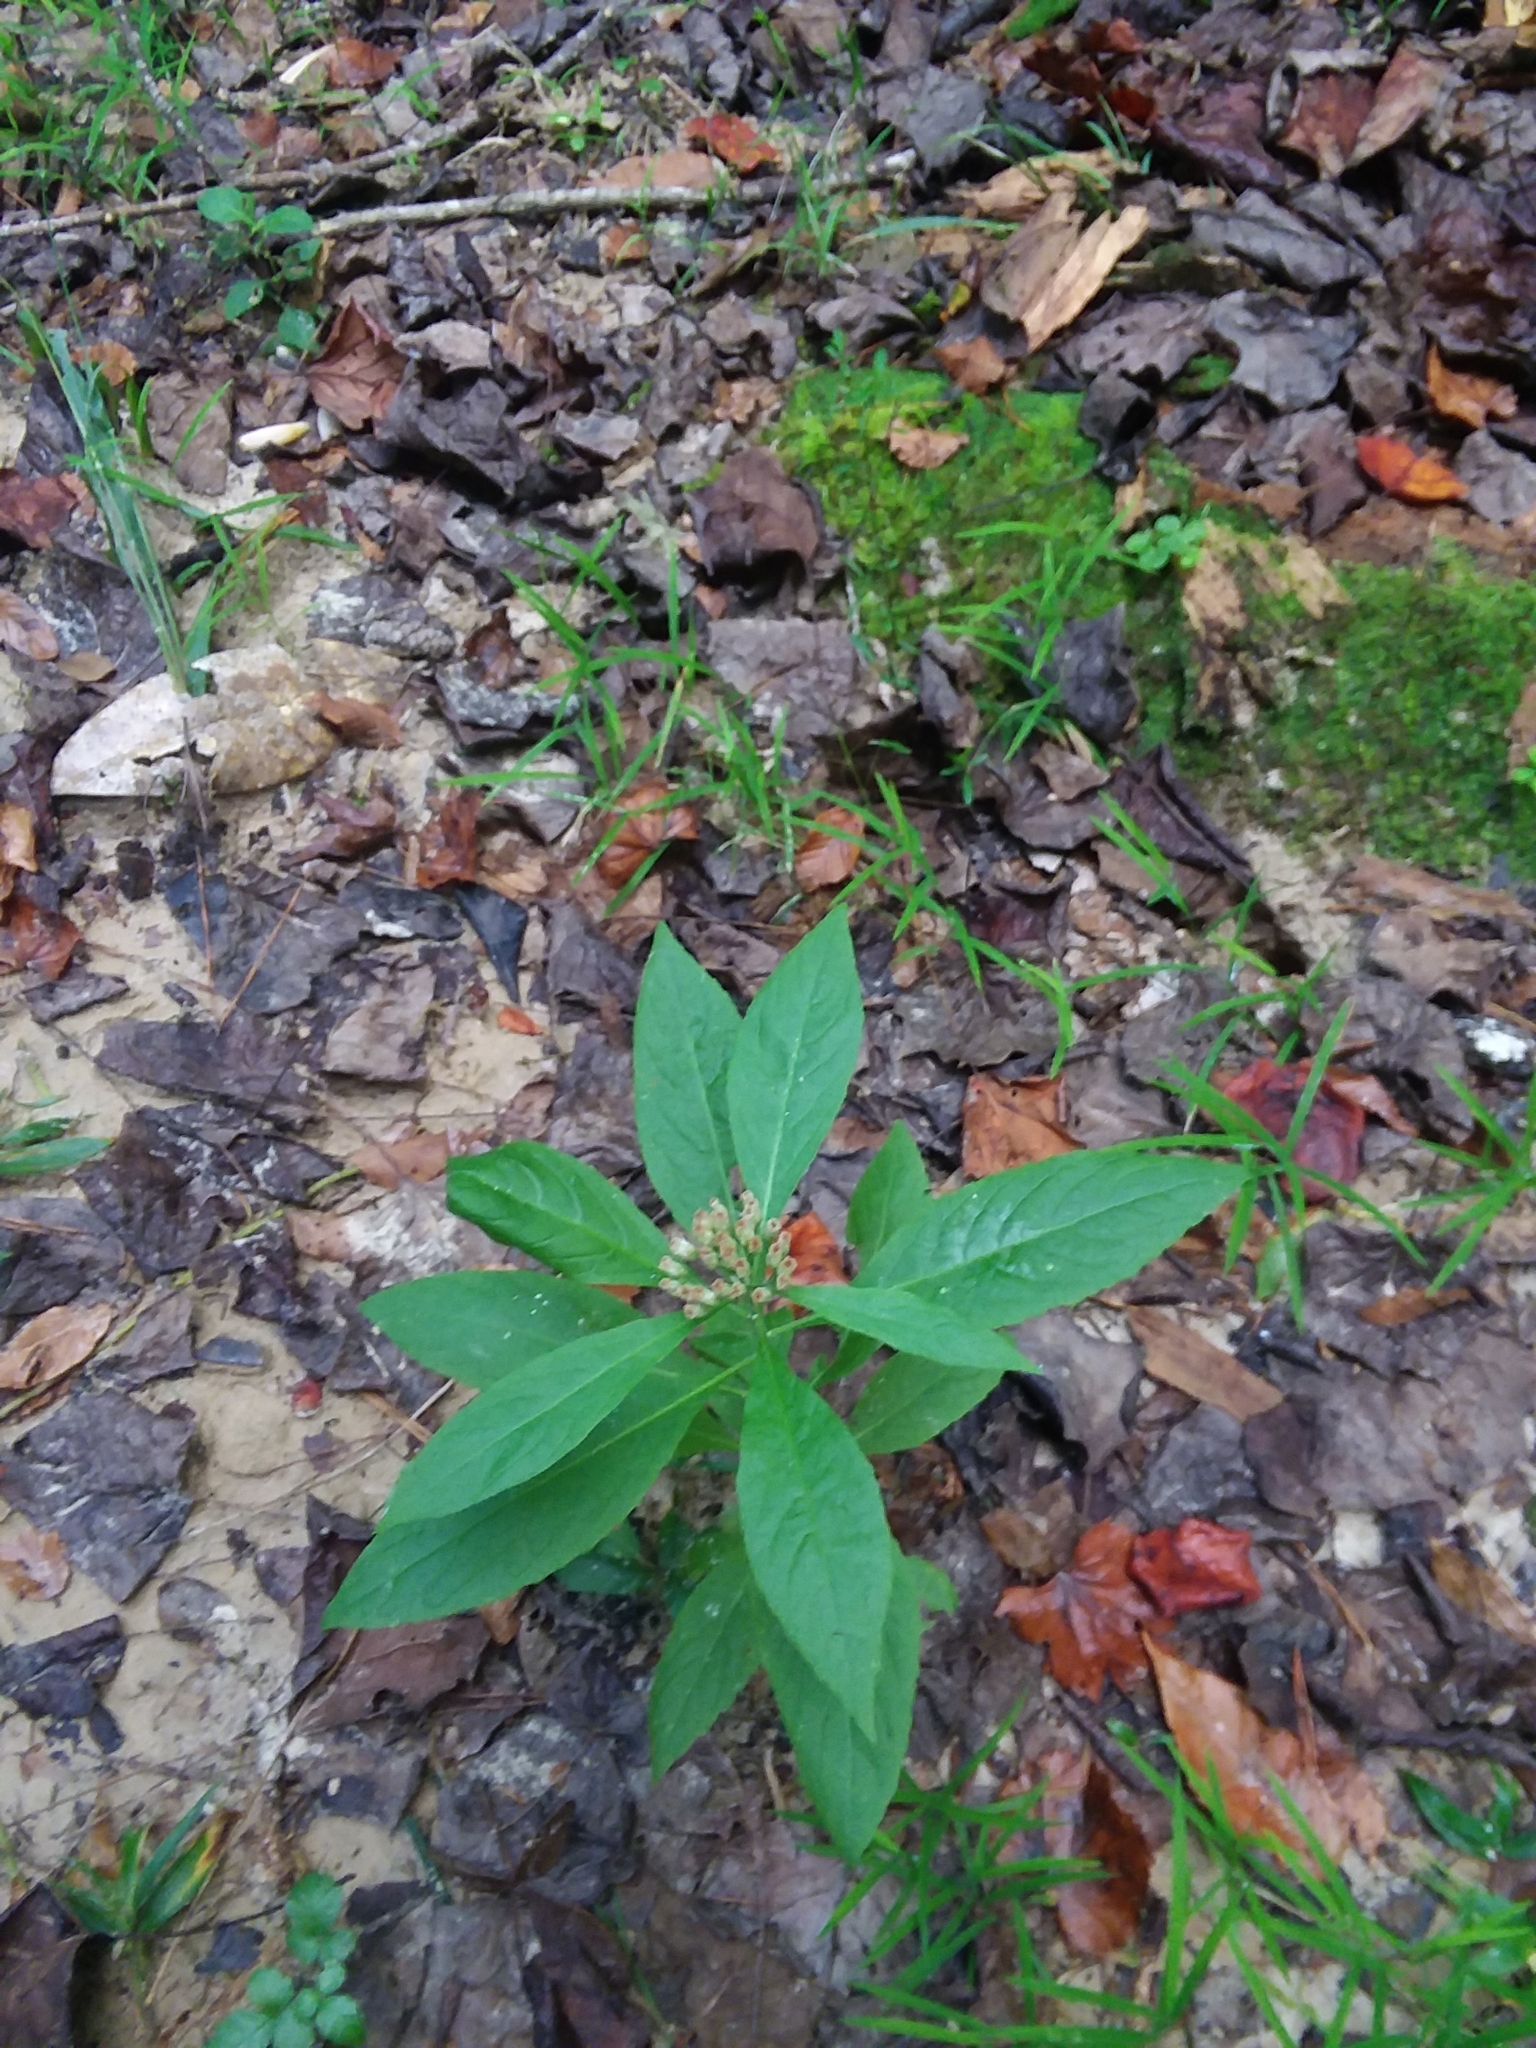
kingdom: Plantae
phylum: Tracheophyta
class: Magnoliopsida
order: Asterales
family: Asteraceae
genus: Pluchea
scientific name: Pluchea camphorata
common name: Camphor pluchea
